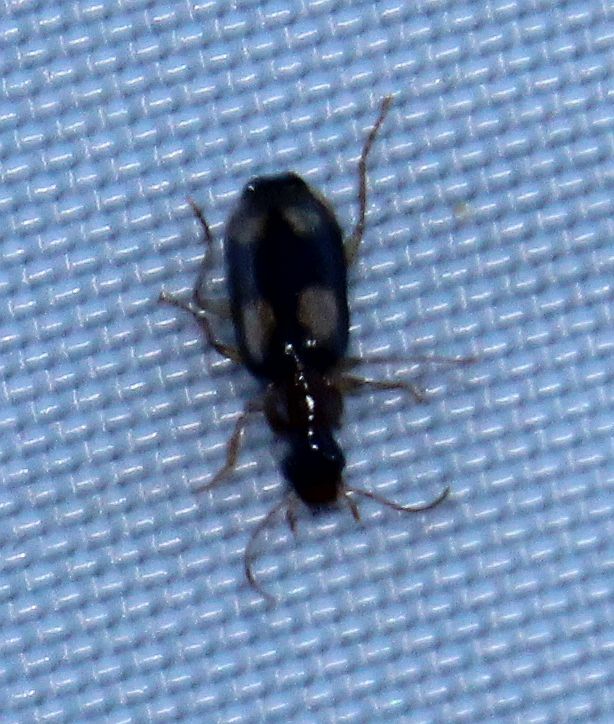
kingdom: Animalia
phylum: Arthropoda
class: Insecta
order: Coleoptera
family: Carabidae
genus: Dromius
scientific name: Dromius quadrimaculatus
